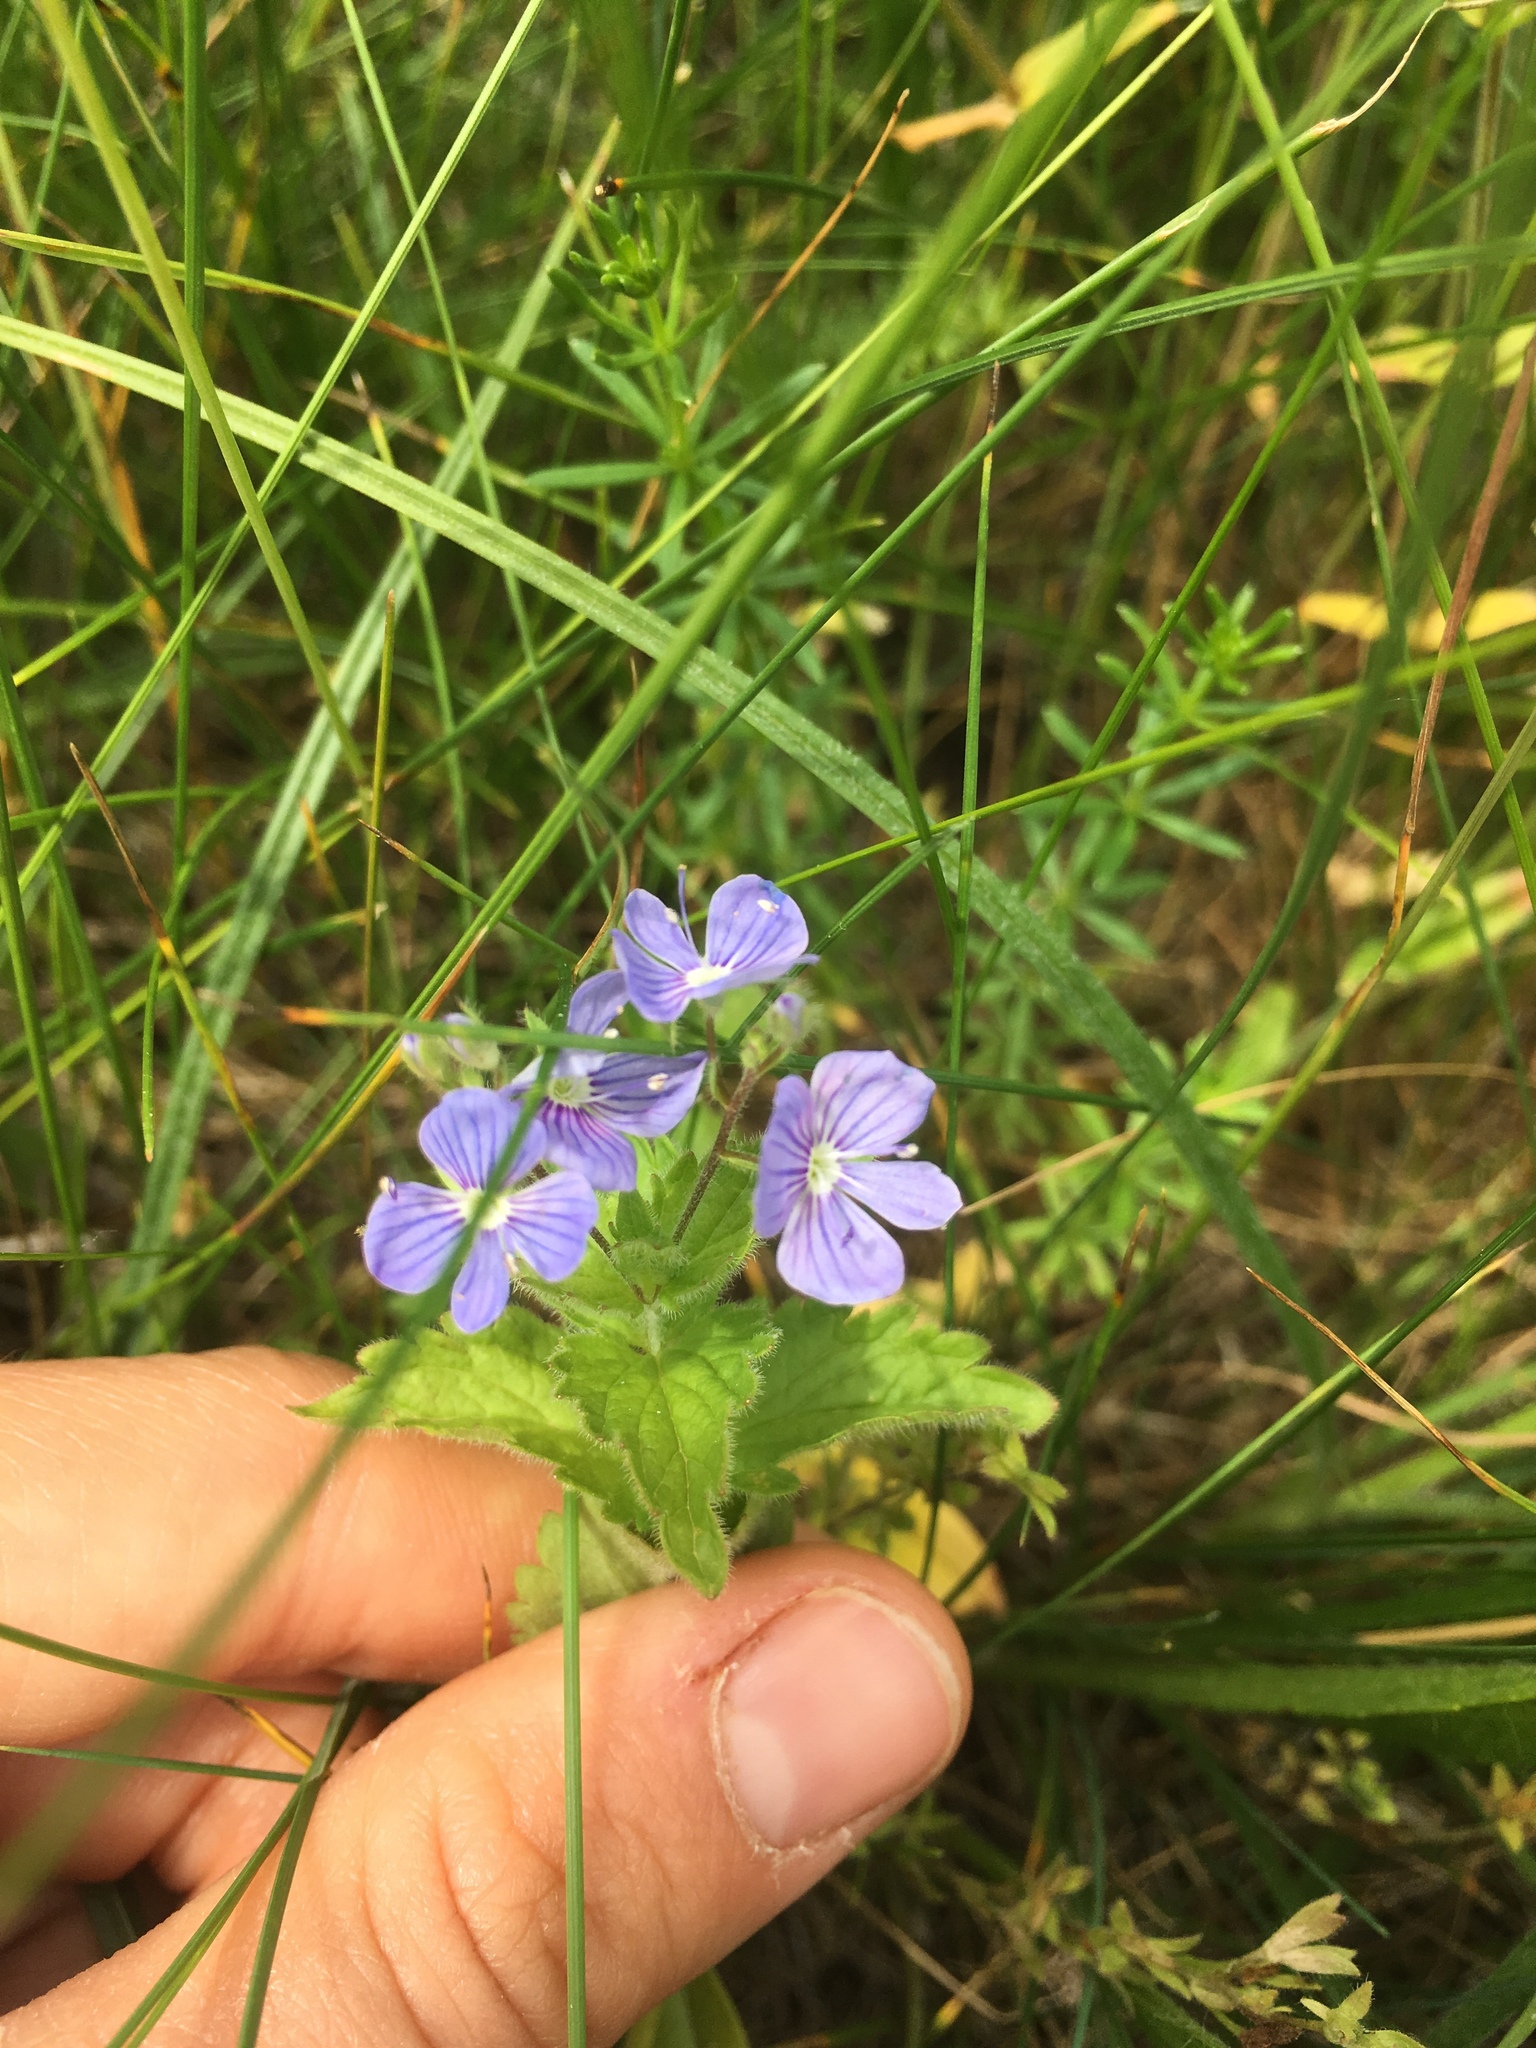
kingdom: Plantae
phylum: Tracheophyta
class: Magnoliopsida
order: Lamiales
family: Plantaginaceae
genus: Veronica
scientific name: Veronica chamaedrys
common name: Germander speedwell
